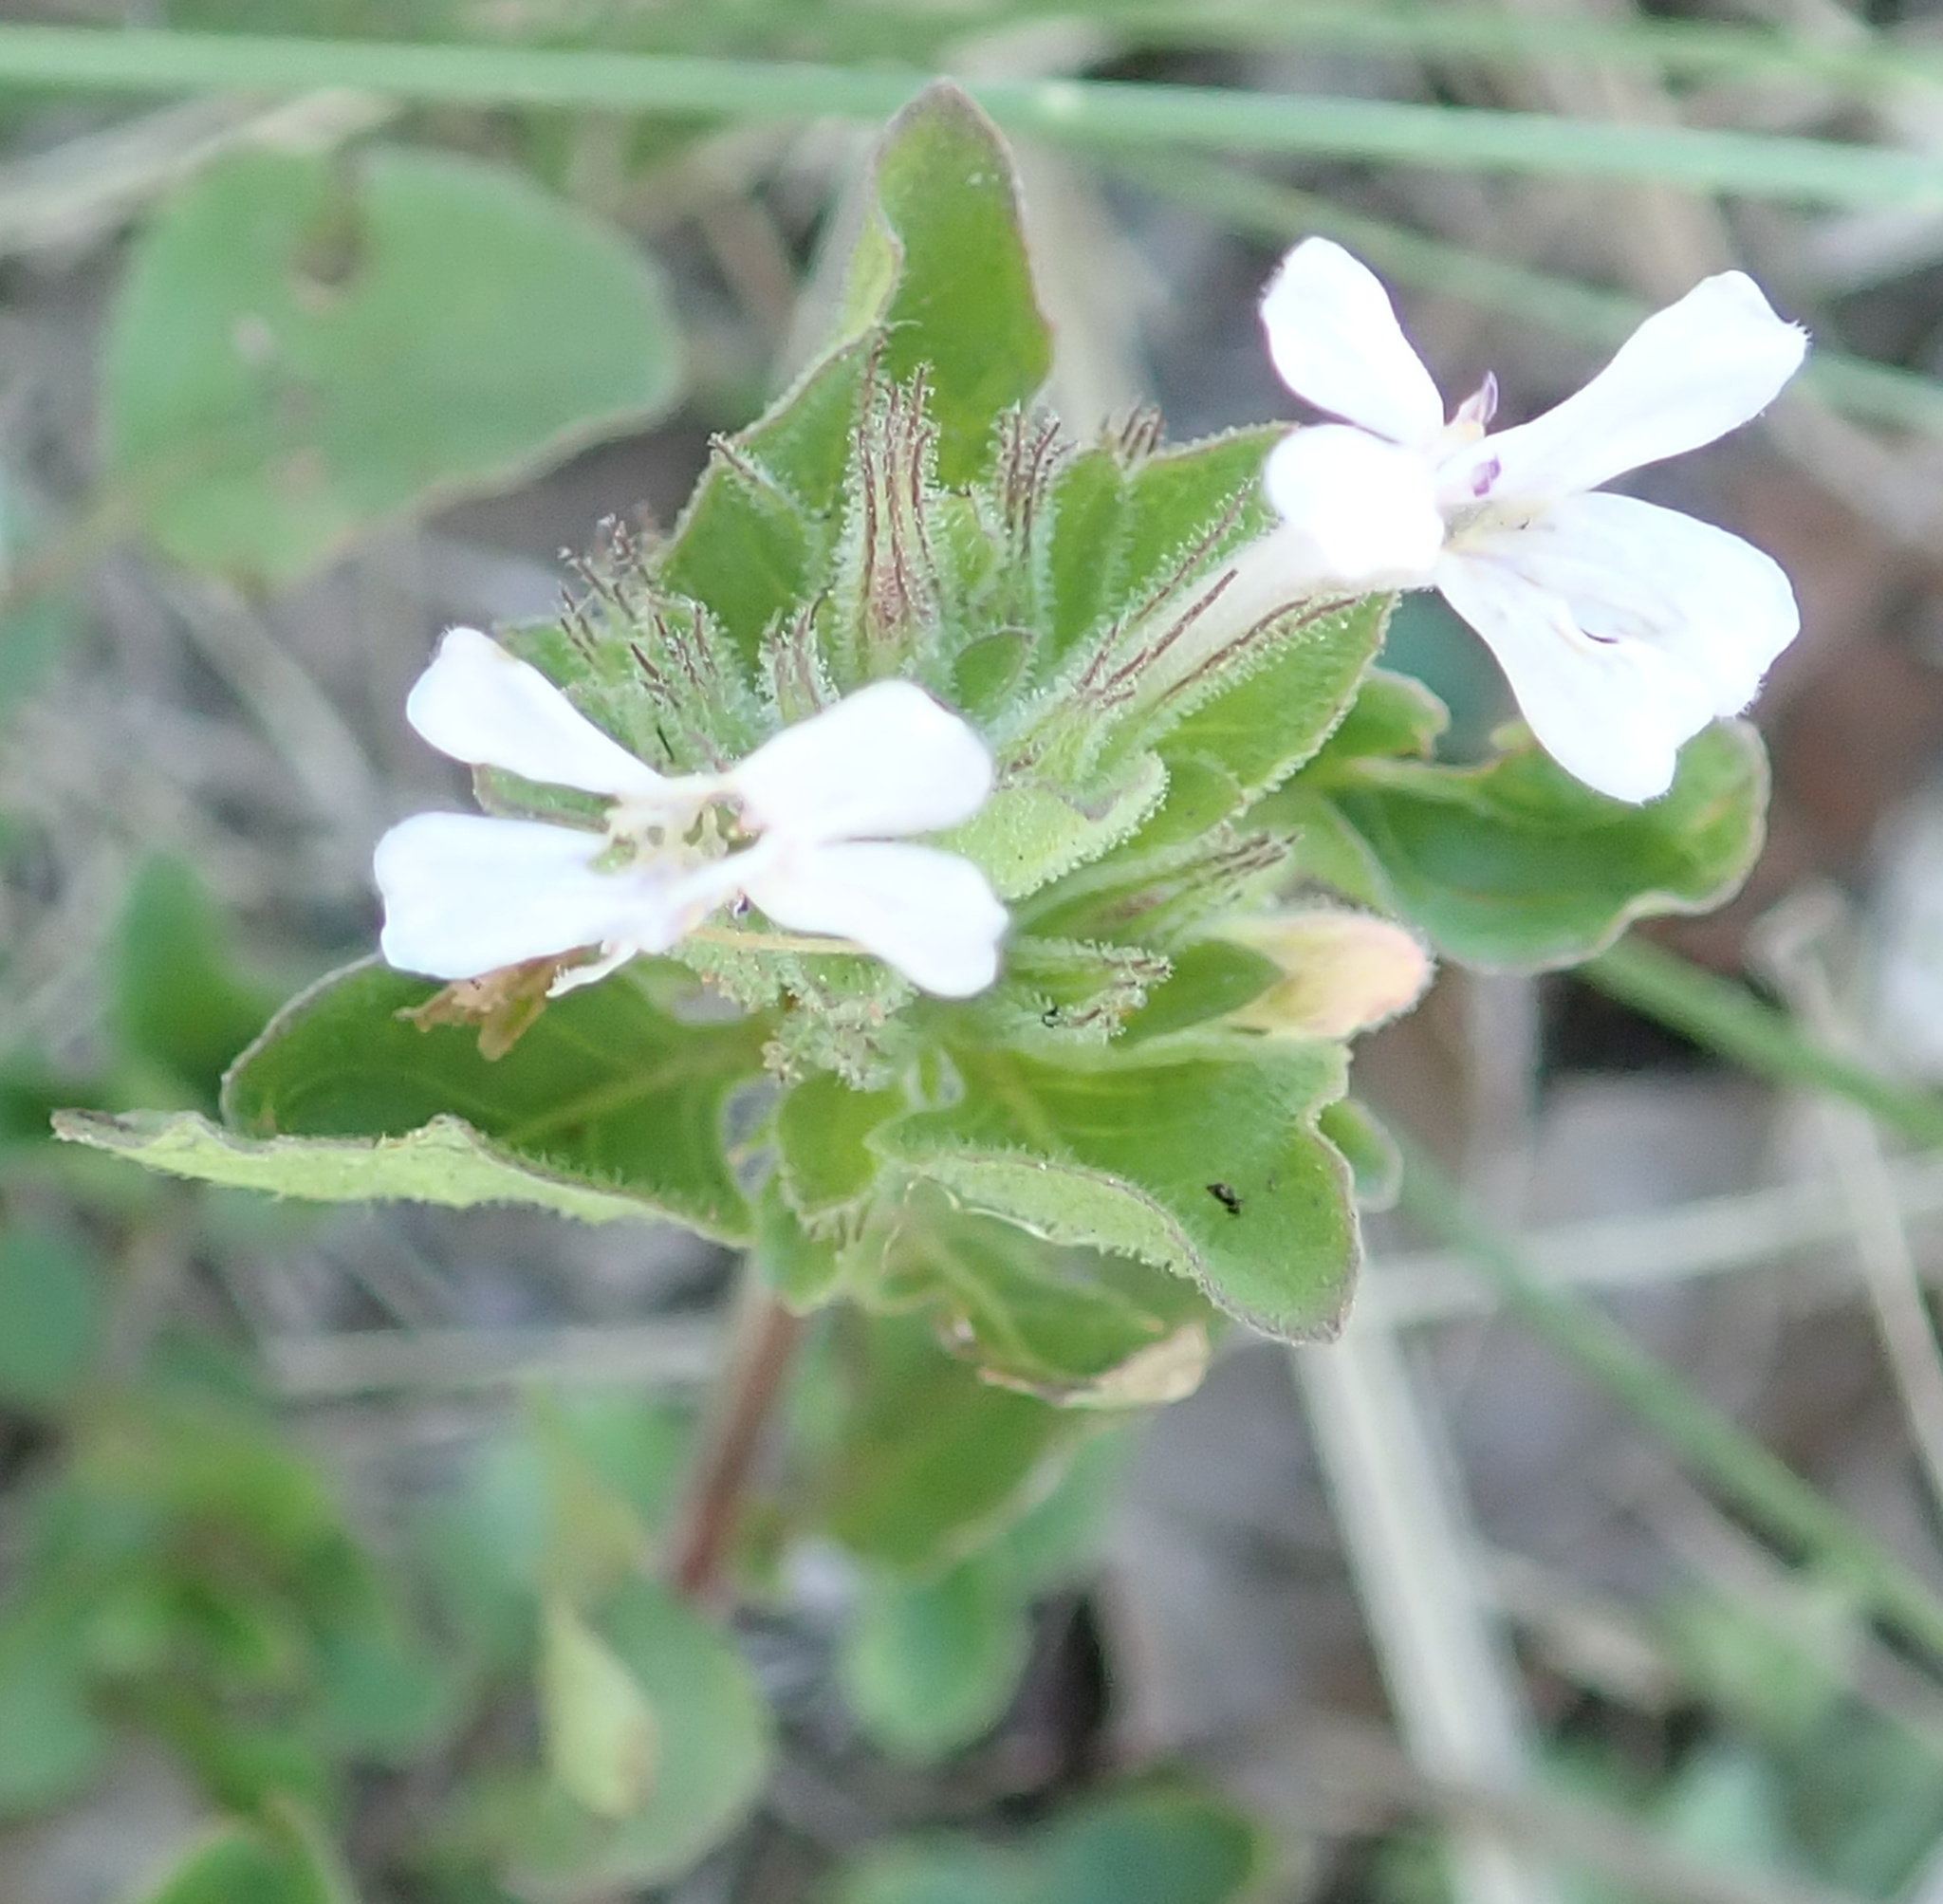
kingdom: Plantae
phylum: Tracheophyta
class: Magnoliopsida
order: Lamiales
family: Acanthaceae
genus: Dyschoriste
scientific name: Dyschoriste radicans
